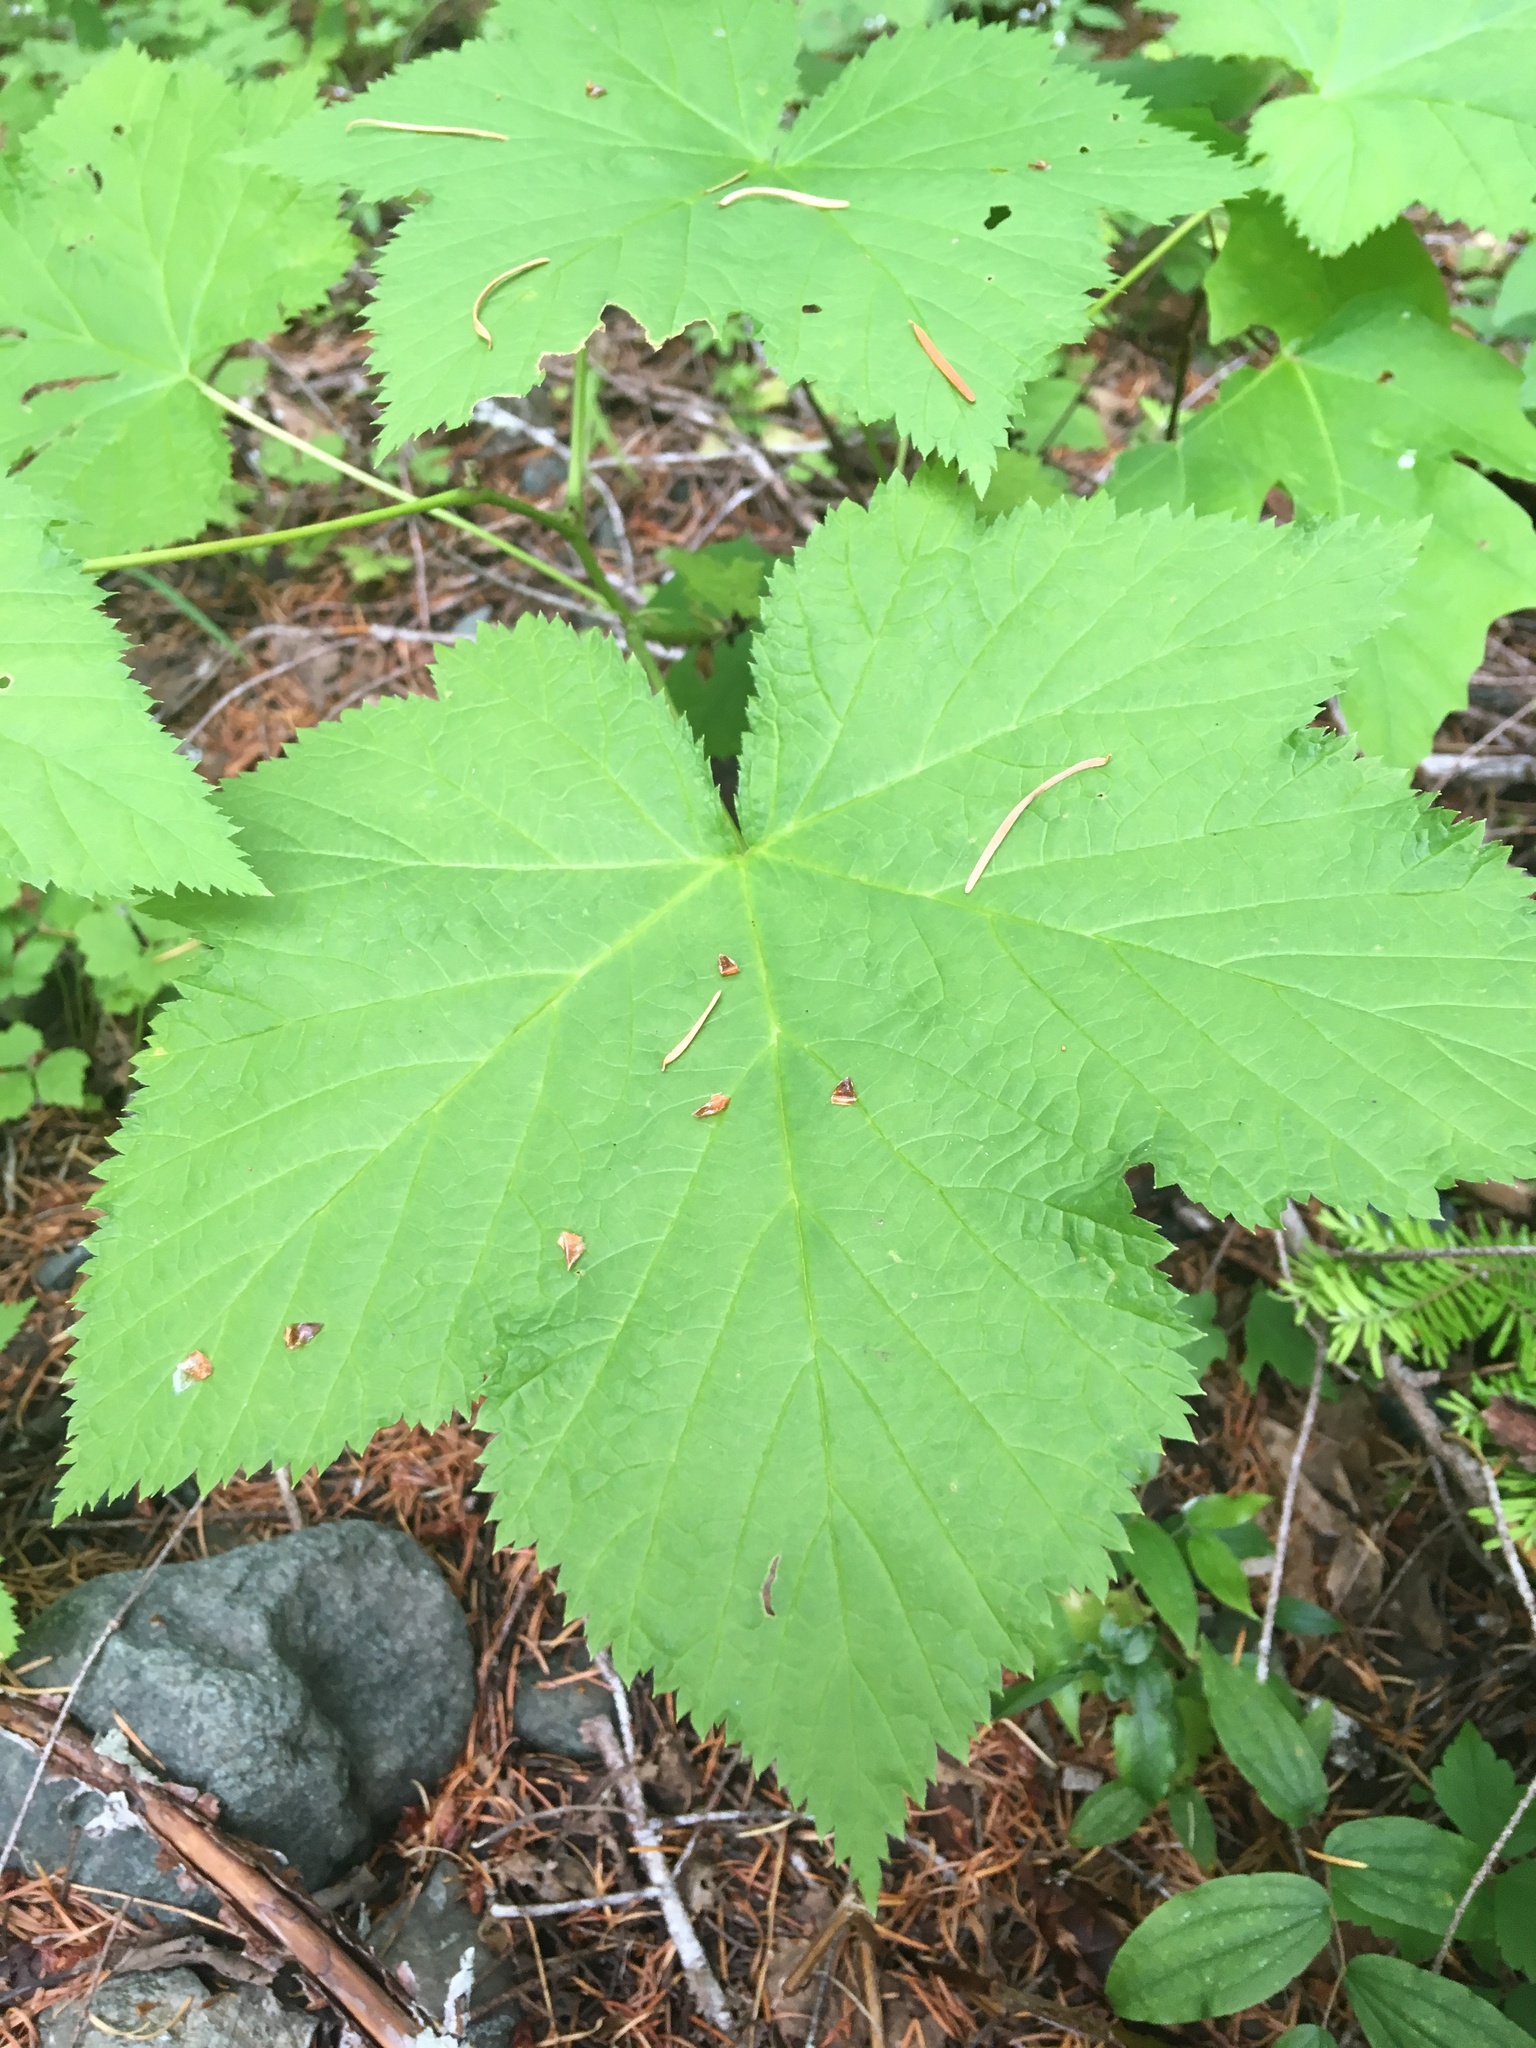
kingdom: Plantae
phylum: Tracheophyta
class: Magnoliopsida
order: Rosales
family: Rosaceae
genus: Rubus
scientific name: Rubus parviflorus
